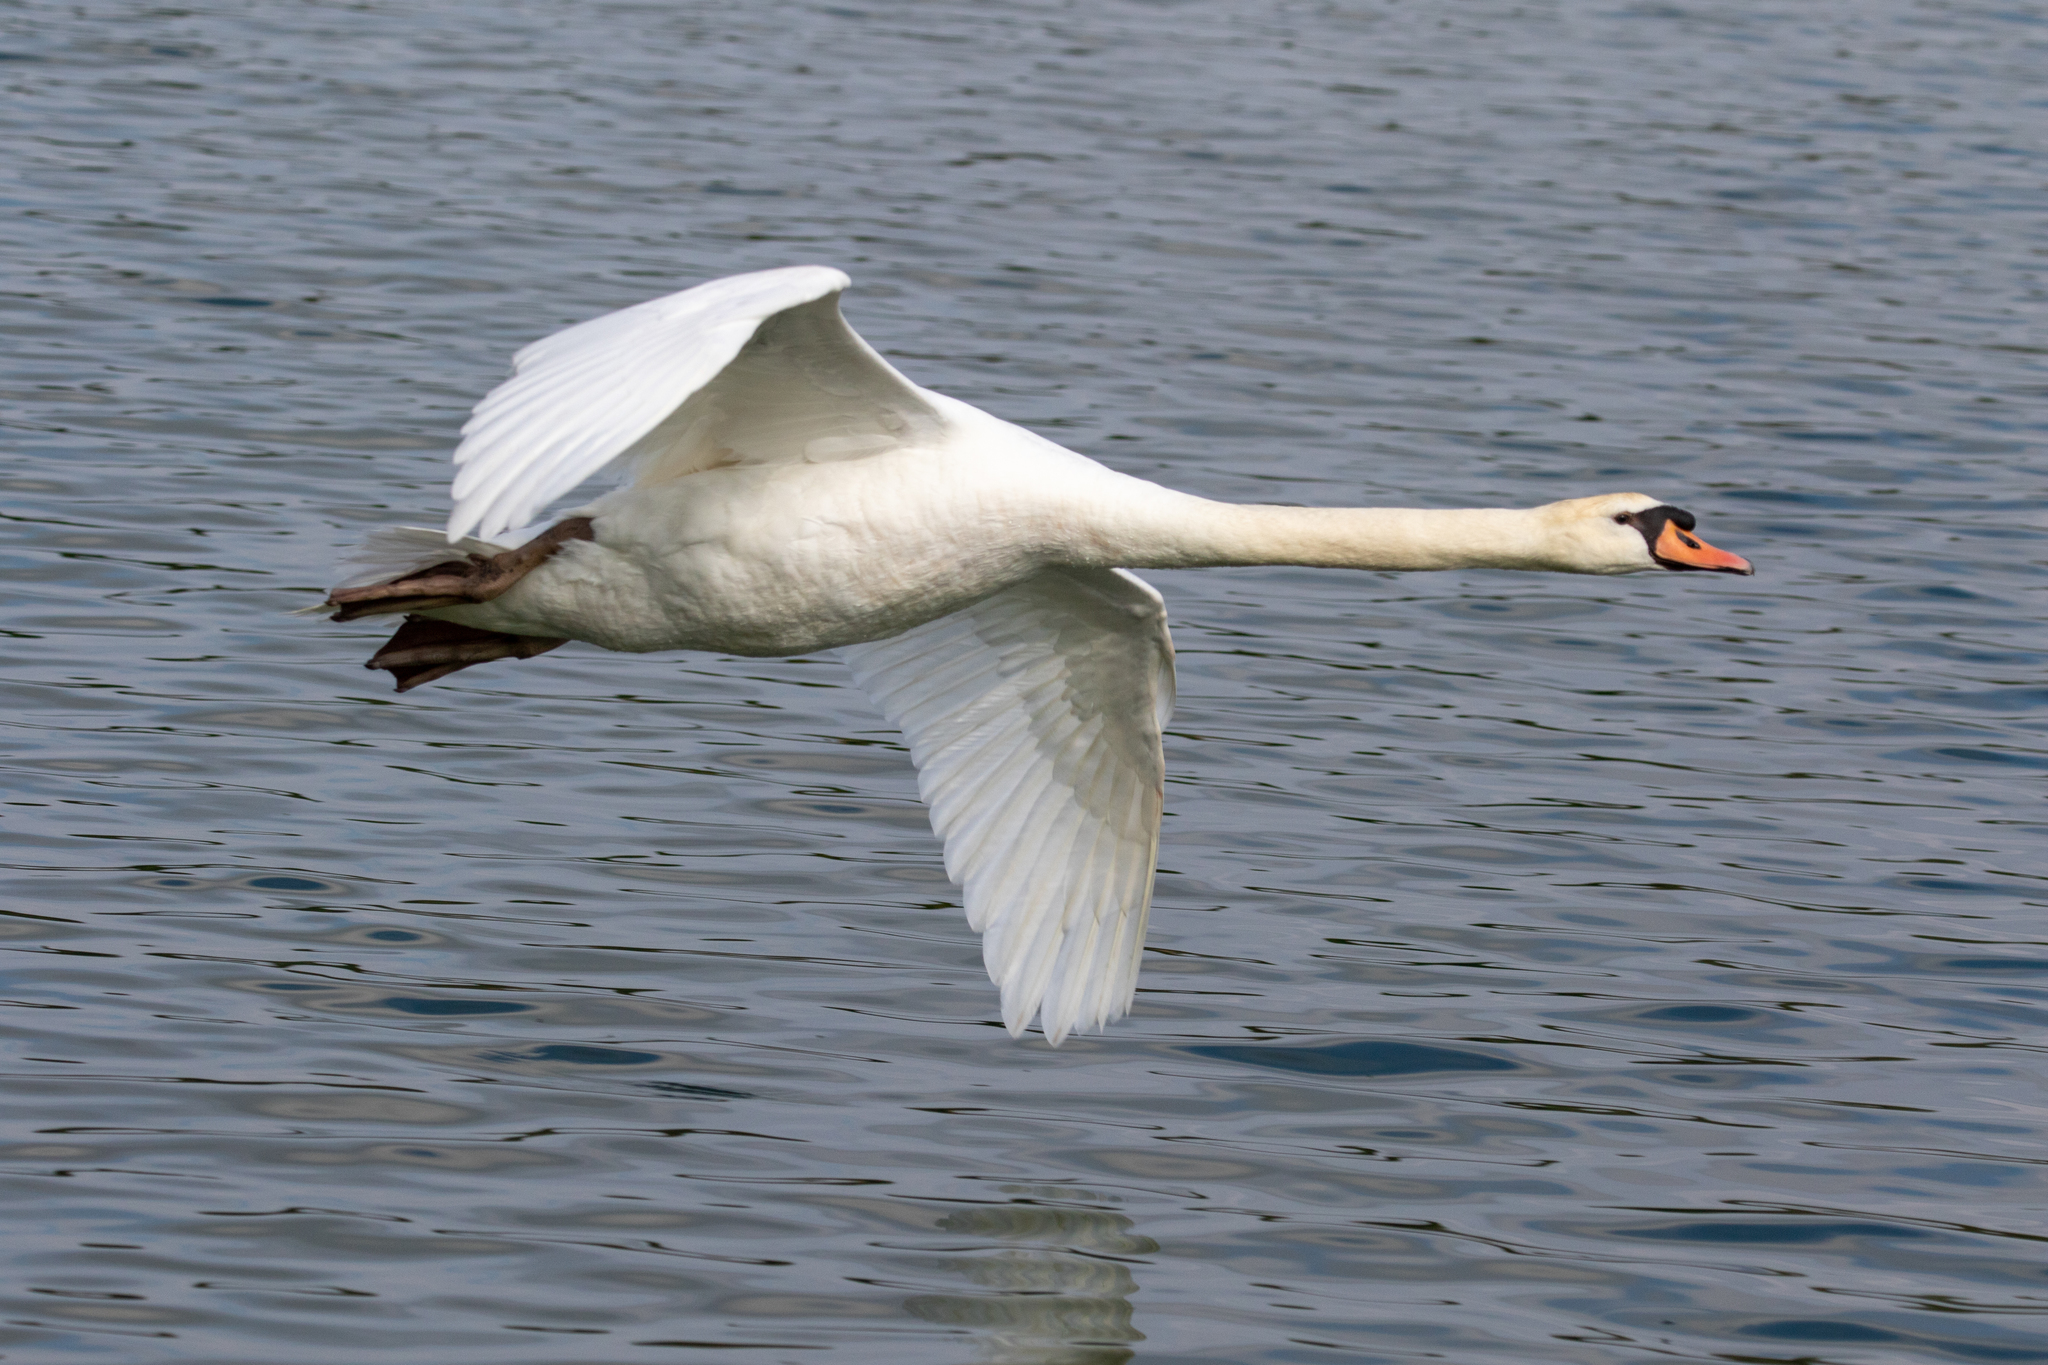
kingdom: Animalia
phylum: Chordata
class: Aves
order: Anseriformes
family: Anatidae
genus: Cygnus
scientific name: Cygnus olor
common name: Mute swan
